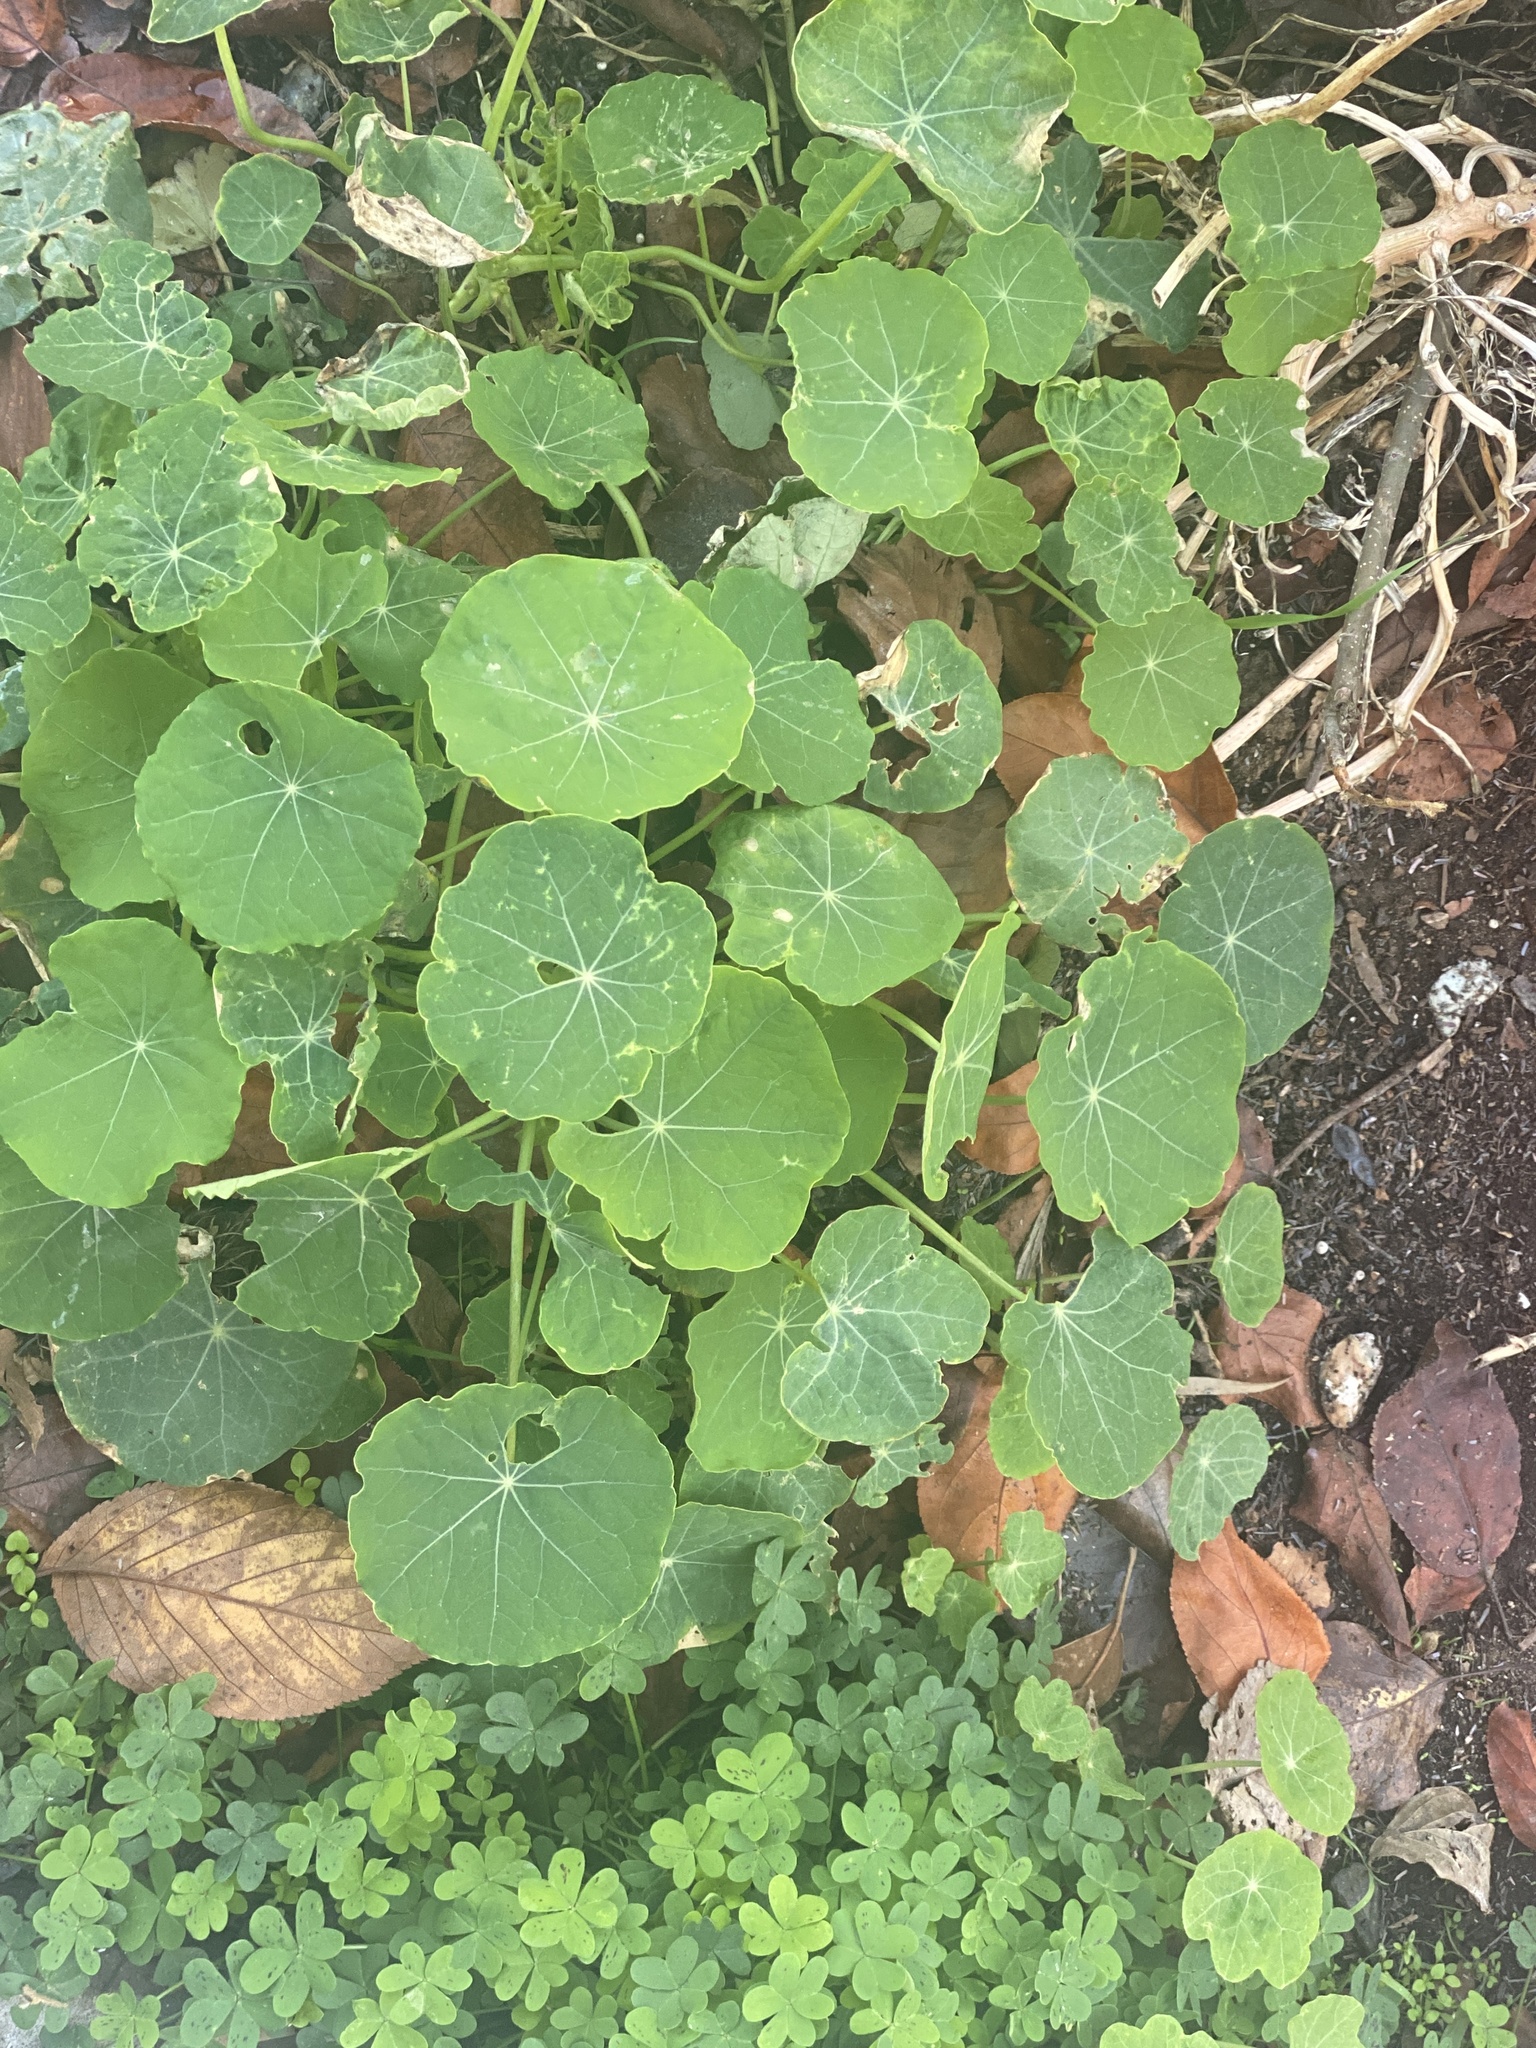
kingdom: Plantae
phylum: Tracheophyta
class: Magnoliopsida
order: Brassicales
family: Tropaeolaceae
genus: Tropaeolum
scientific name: Tropaeolum majus
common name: Nasturtium
